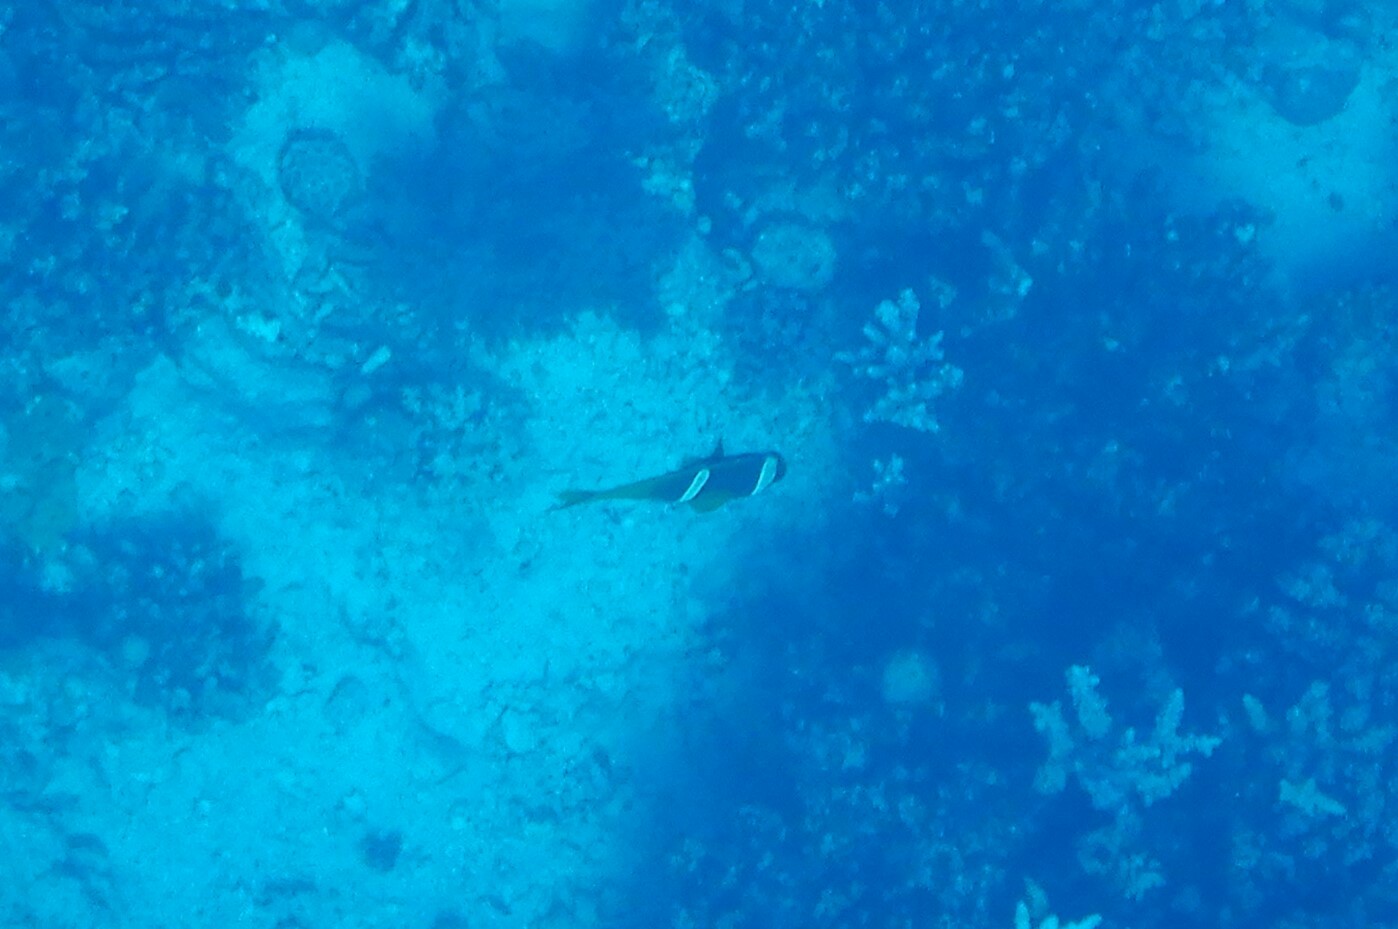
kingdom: Animalia
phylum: Chordata
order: Perciformes
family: Pomacentridae
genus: Amphiprion
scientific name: Amphiprion bicinctus
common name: Two-banded anemonefish
